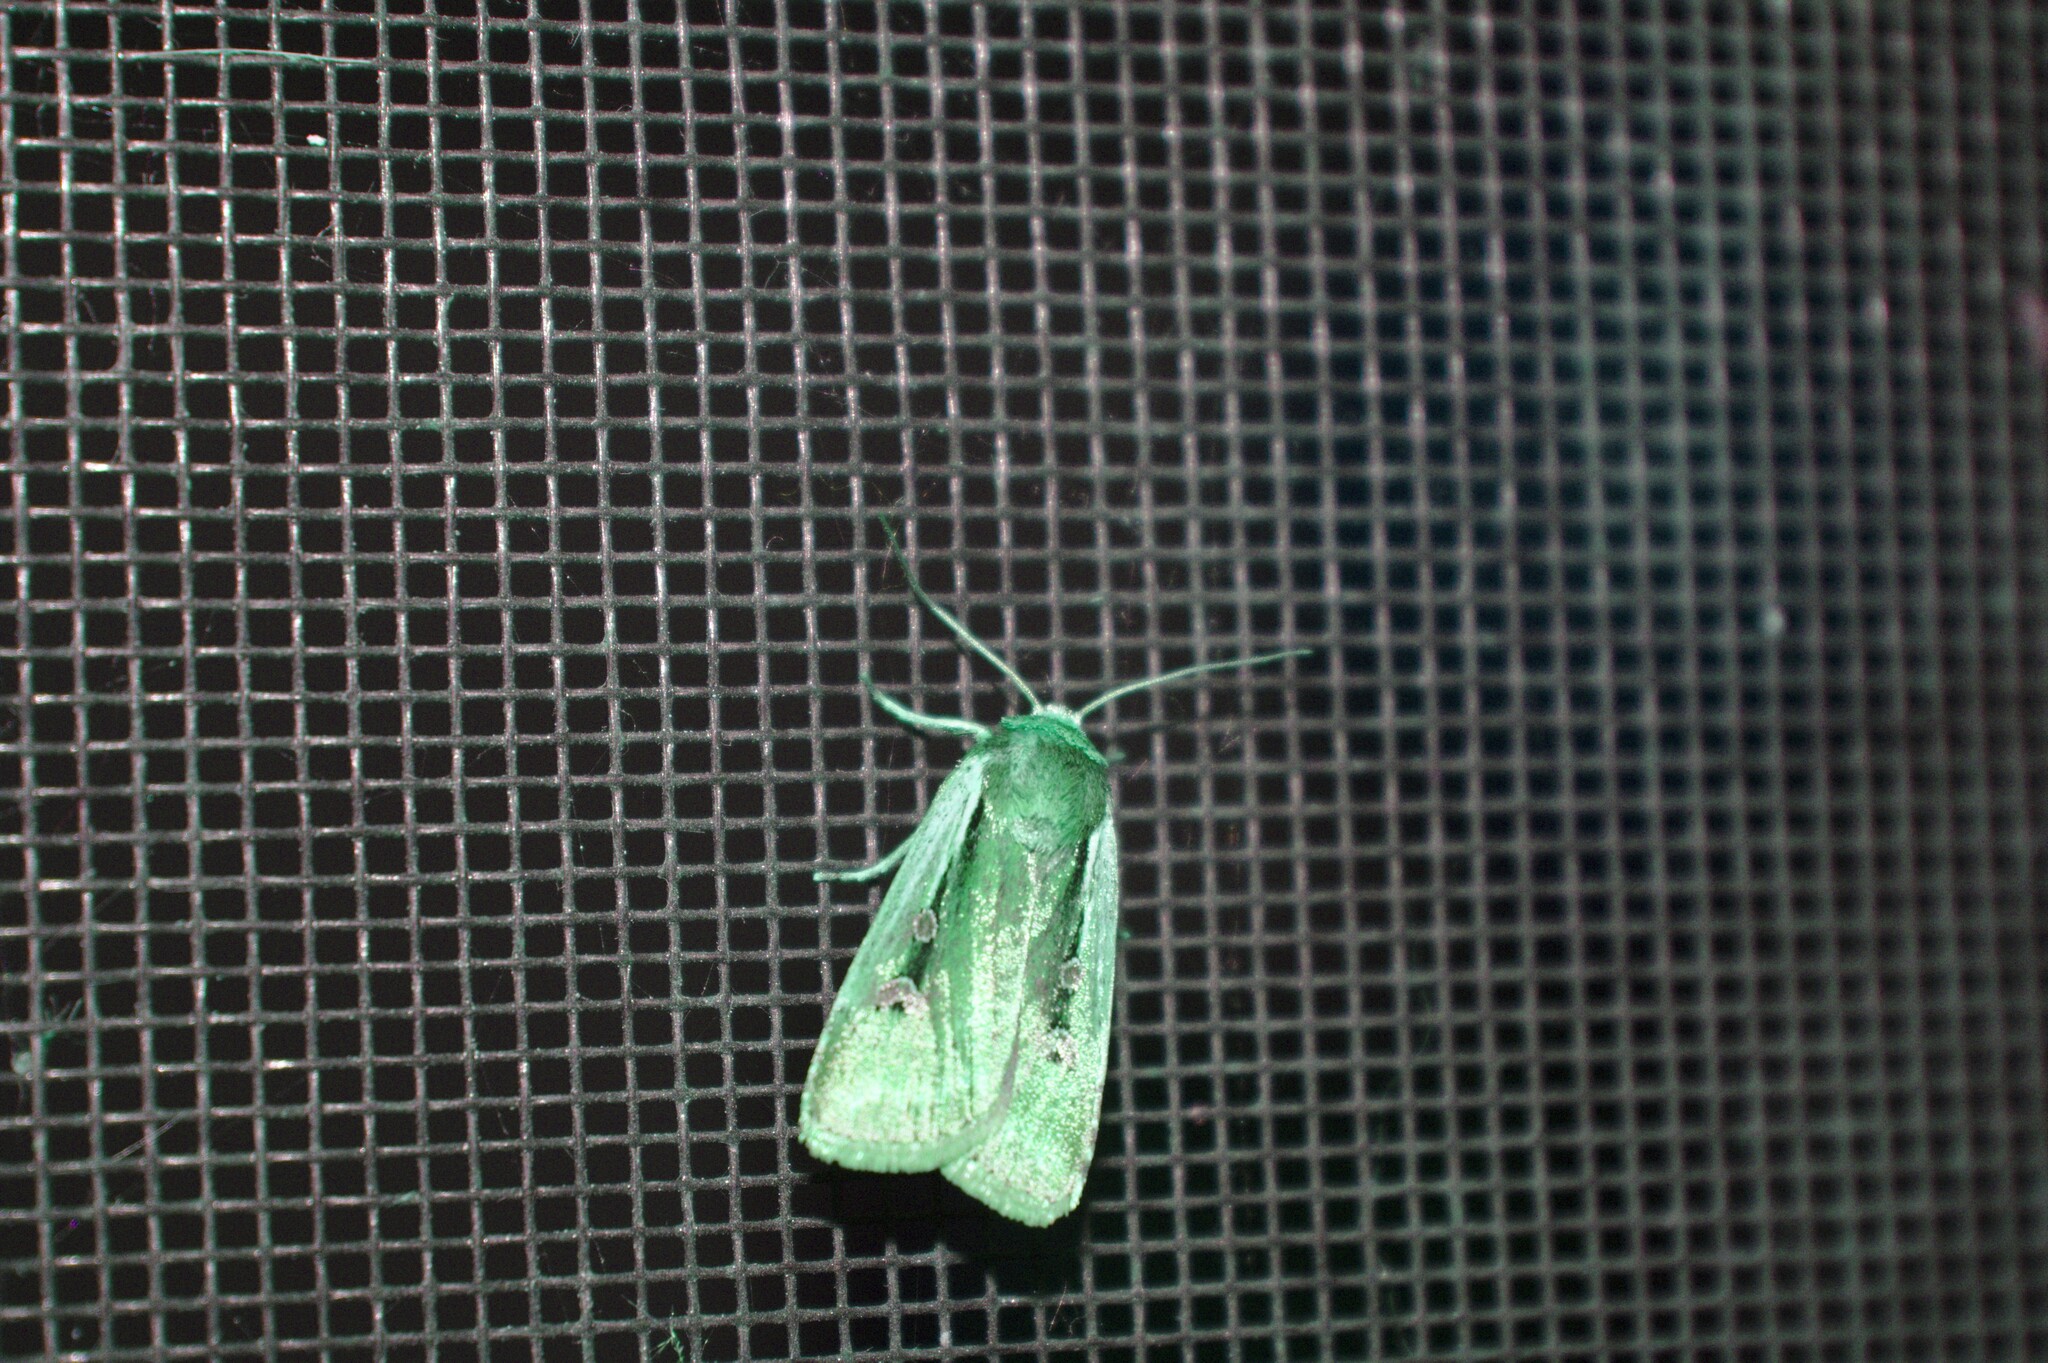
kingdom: Animalia
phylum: Arthropoda
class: Insecta
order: Lepidoptera
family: Noctuidae
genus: Ochropleura
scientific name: Ochropleura implecta
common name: Flame-shouldered dart
